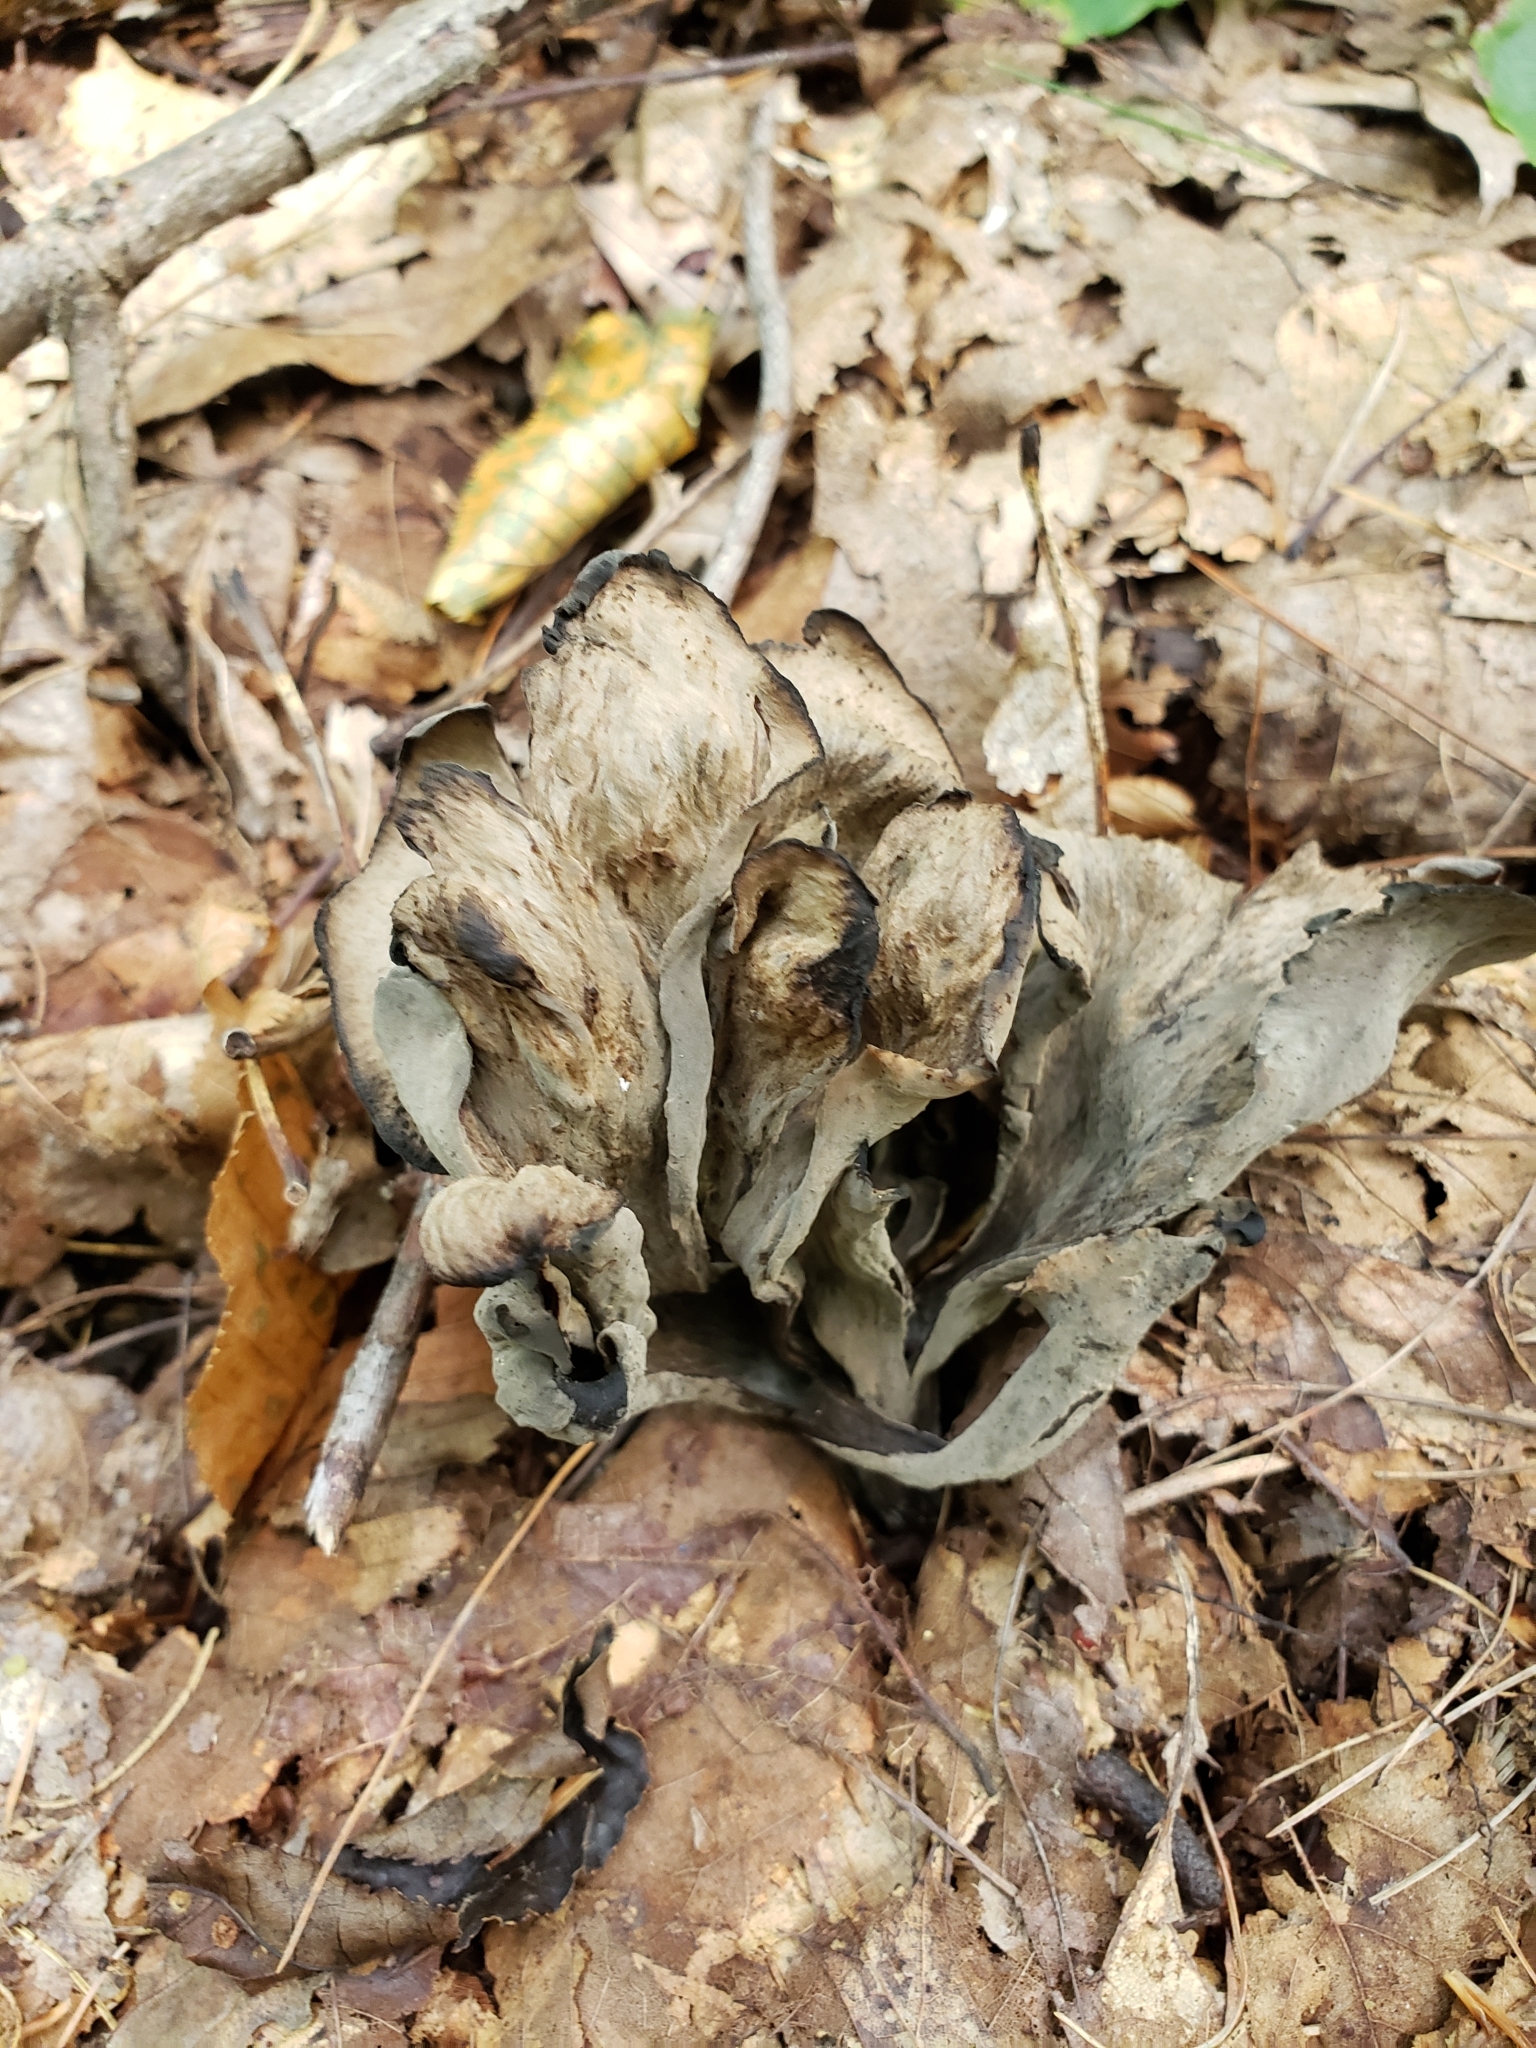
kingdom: Fungi
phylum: Basidiomycota
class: Agaricomycetes
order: Cantharellales
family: Hydnaceae
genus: Craterellus
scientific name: Craterellus cornucopioides
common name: Horn of plenty
